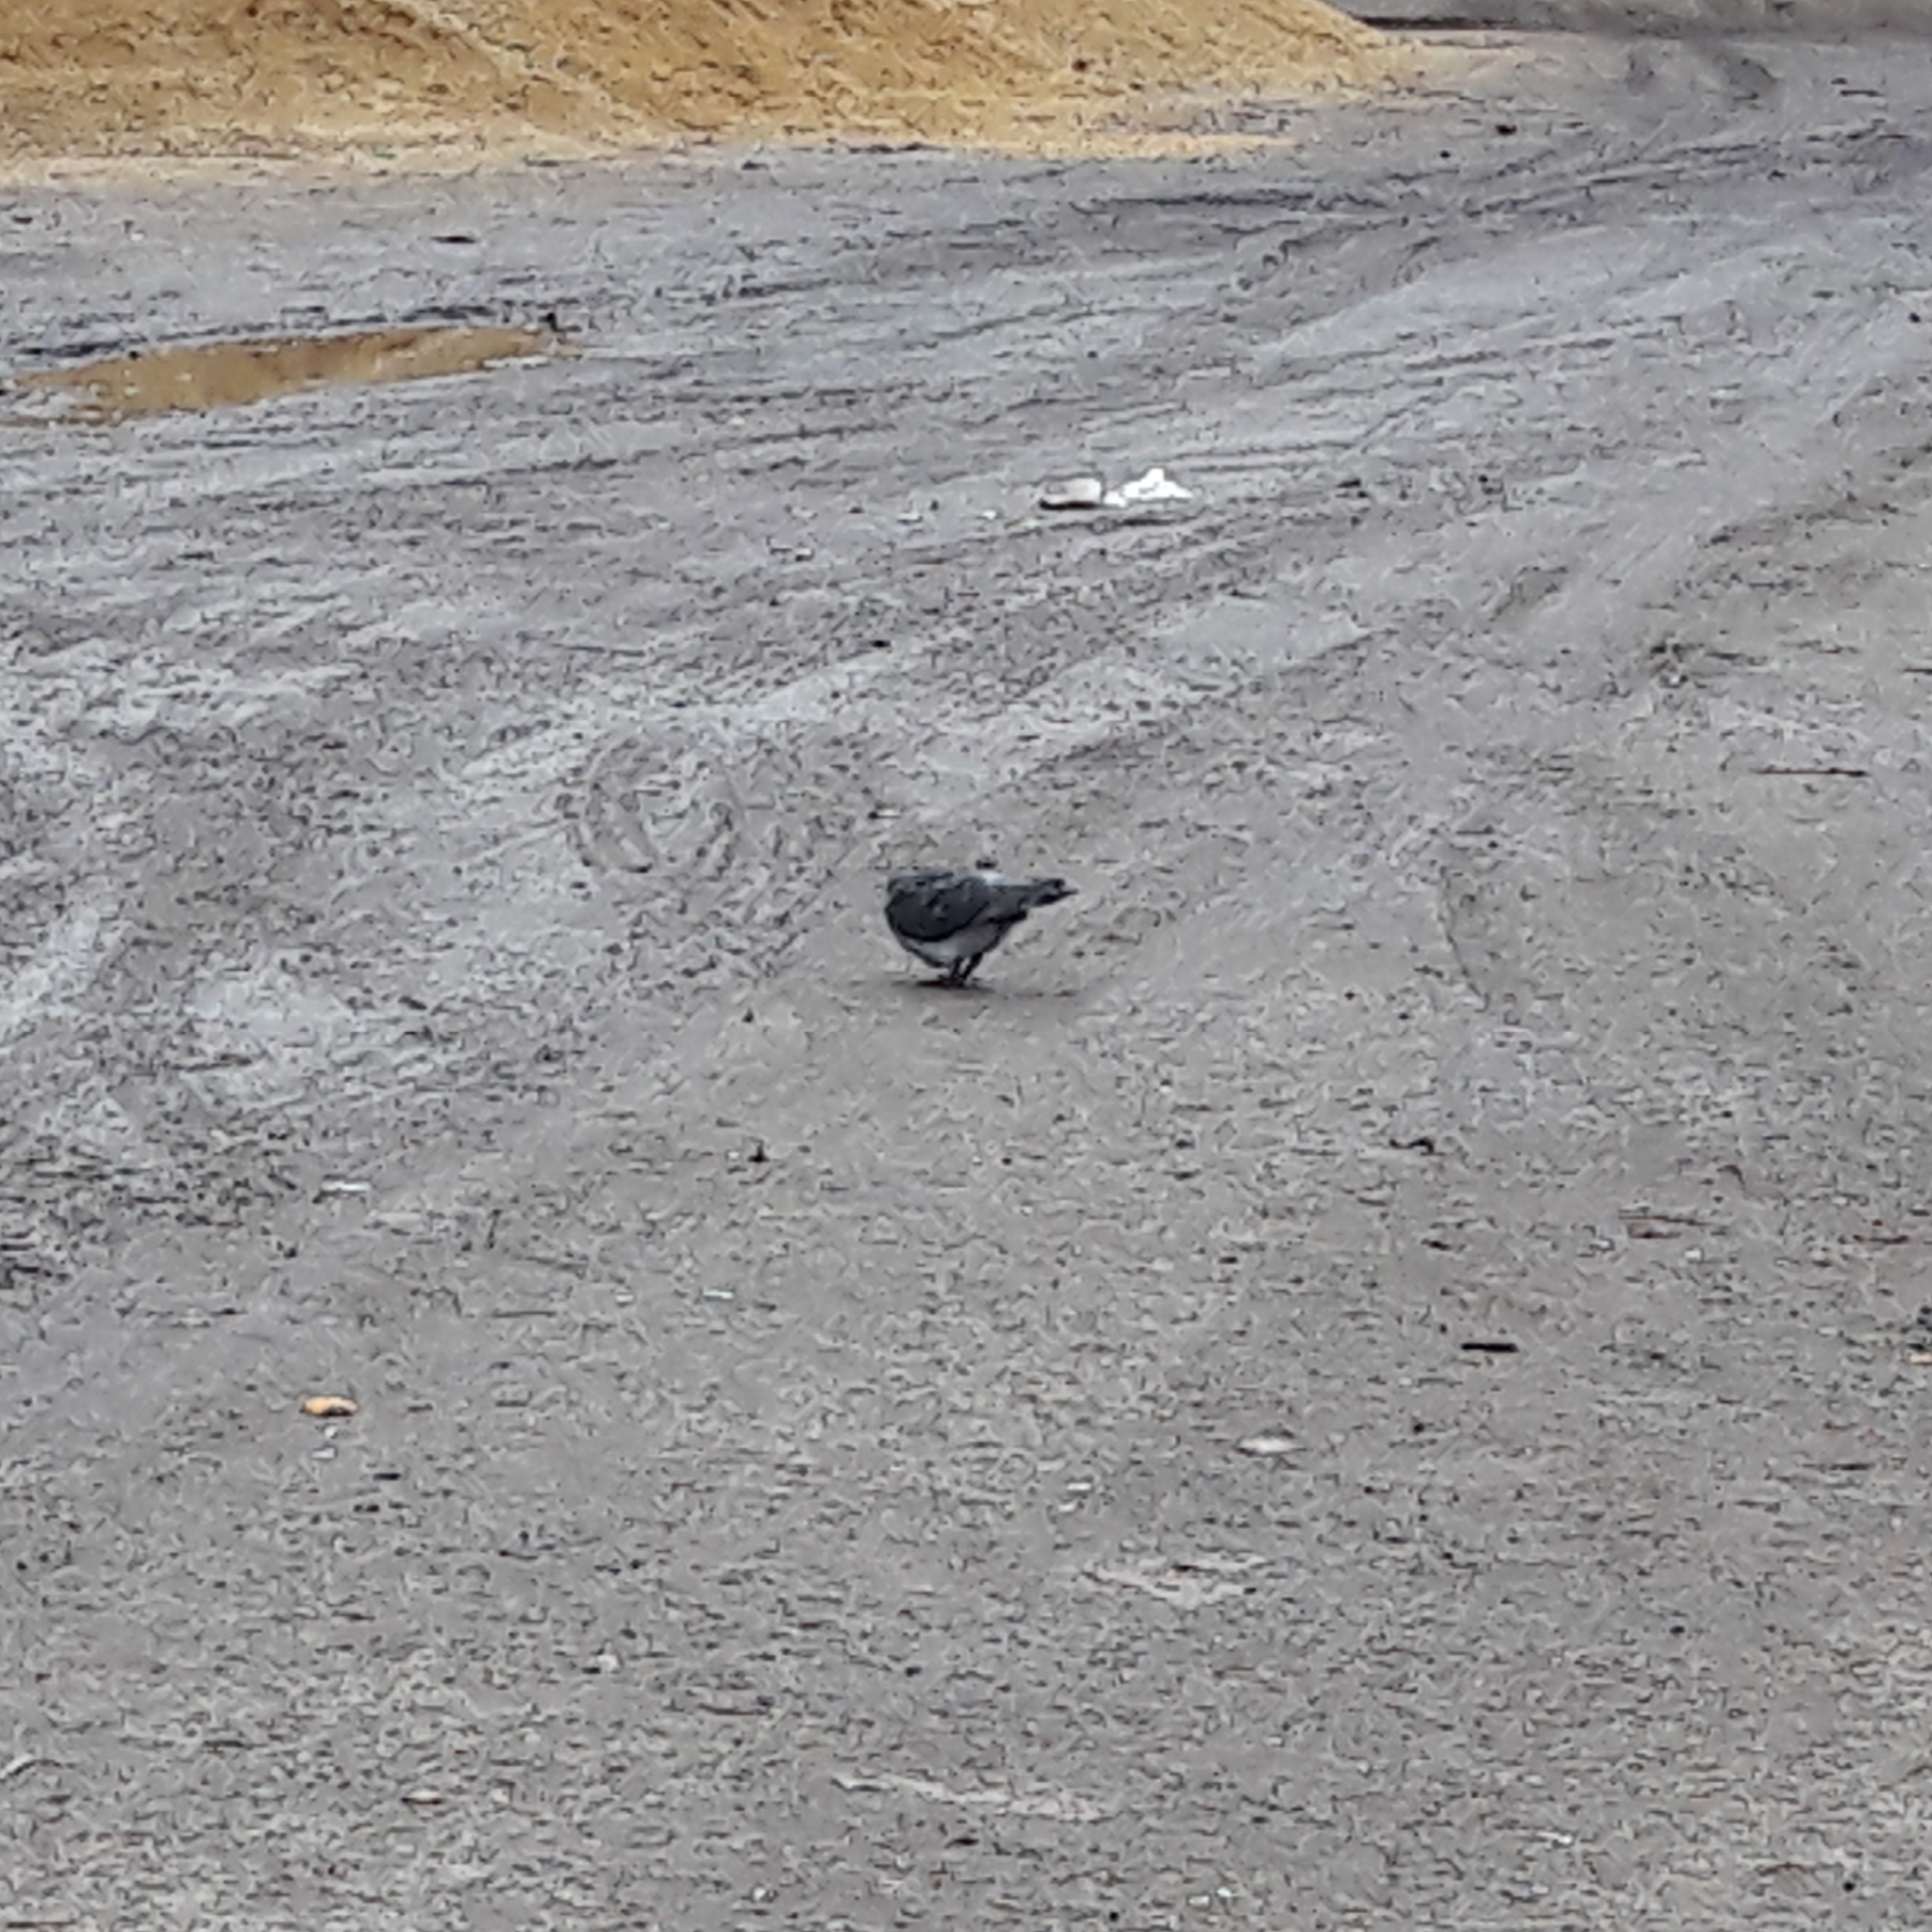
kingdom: Animalia
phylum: Chordata
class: Aves
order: Columbiformes
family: Columbidae
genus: Columba
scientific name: Columba livia
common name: Rock pigeon
